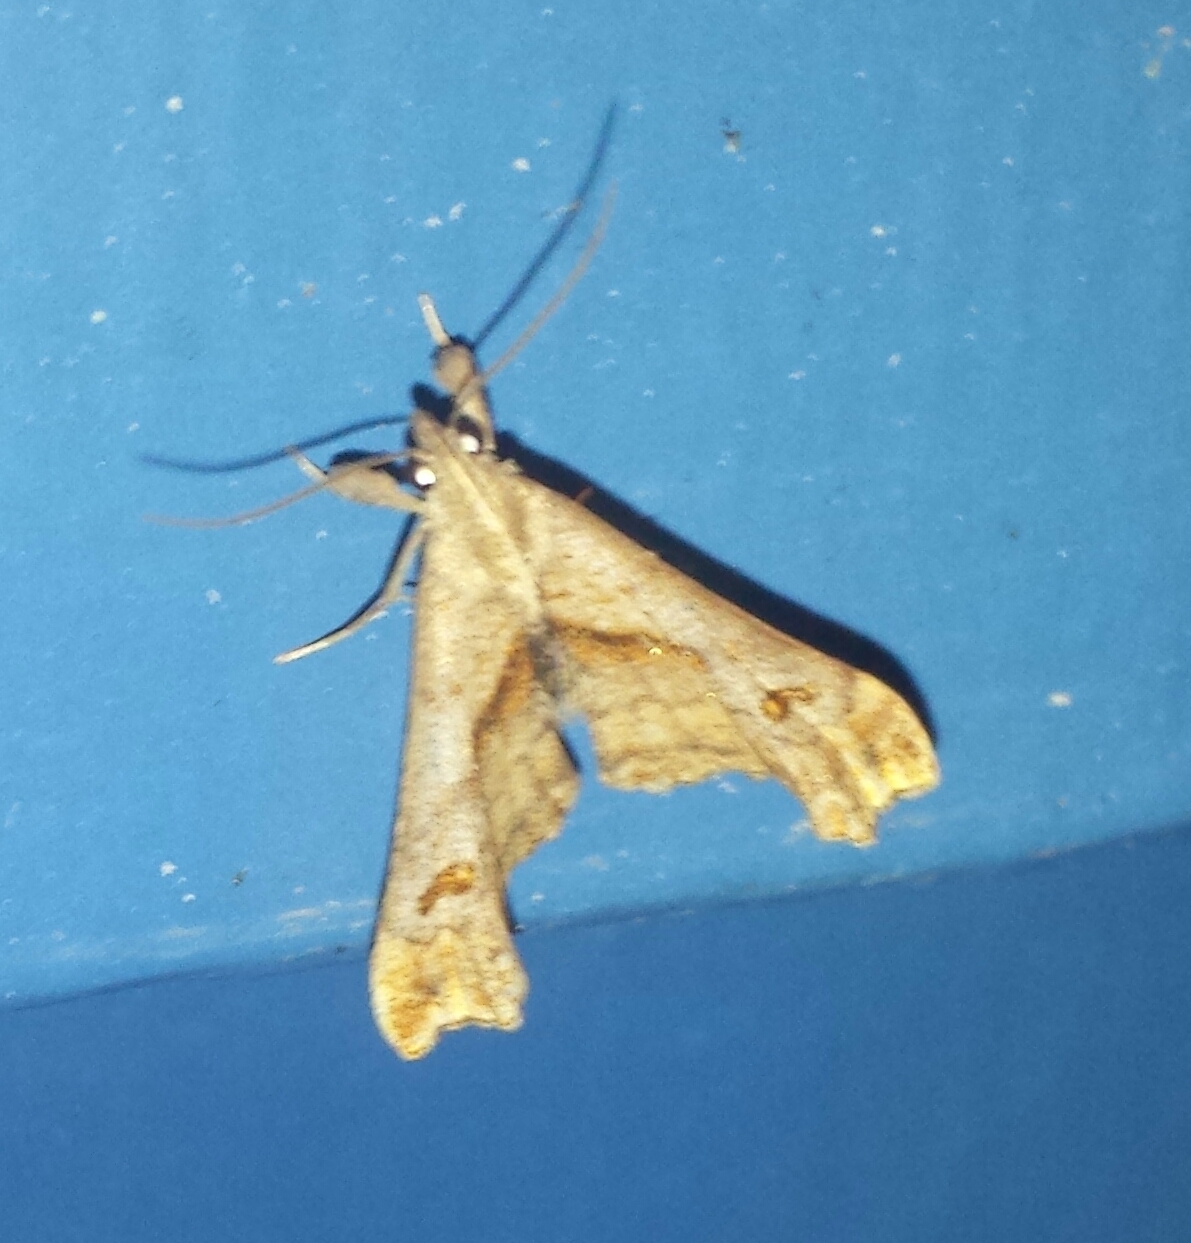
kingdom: Animalia
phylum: Arthropoda
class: Insecta
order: Lepidoptera
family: Erebidae
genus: Palthis
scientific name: Palthis angulalis
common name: Dark-spotted palthis moth
